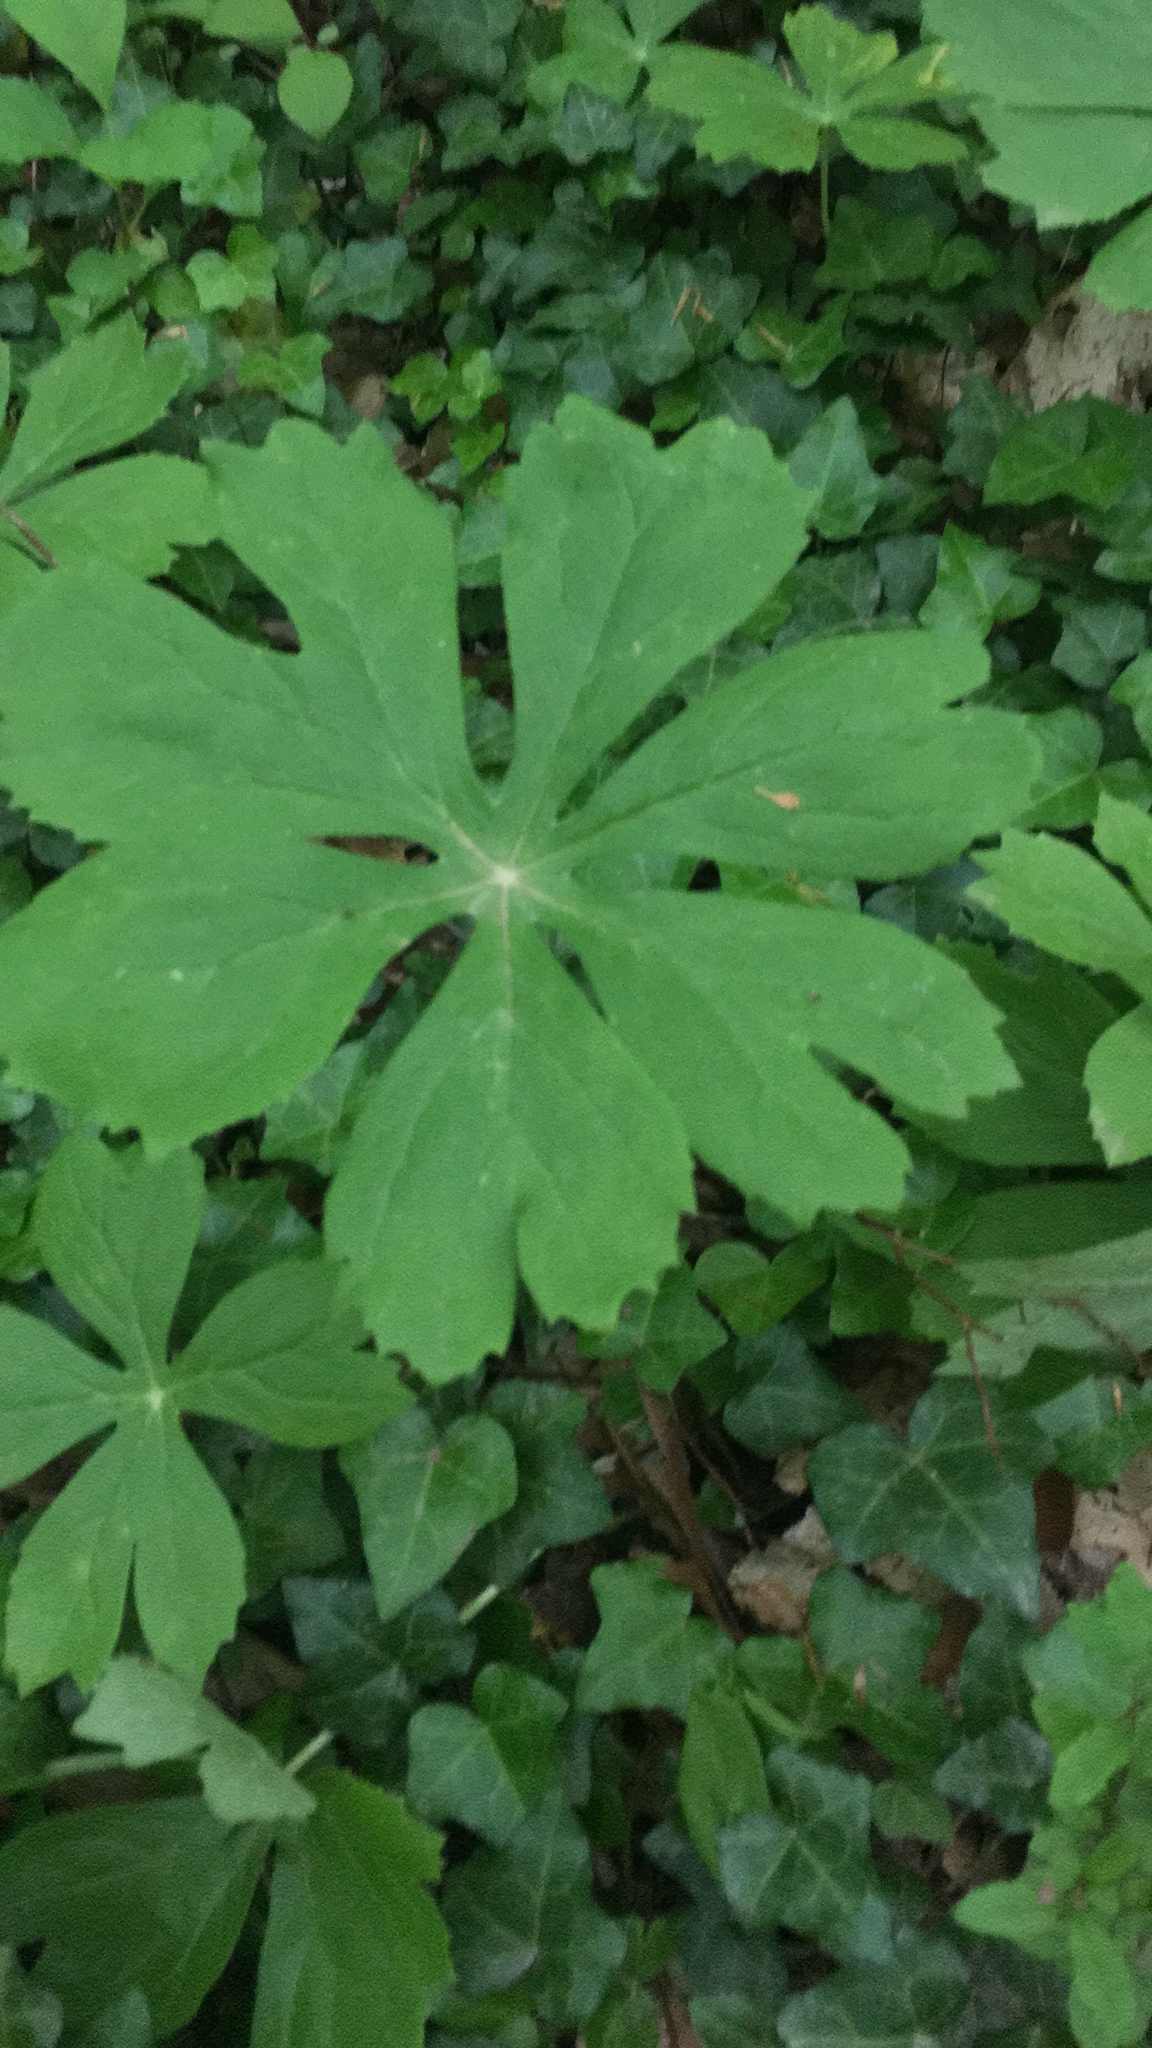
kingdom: Plantae
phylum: Tracheophyta
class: Magnoliopsida
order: Ranunculales
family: Berberidaceae
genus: Podophyllum
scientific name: Podophyllum peltatum
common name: Wild mandrake
